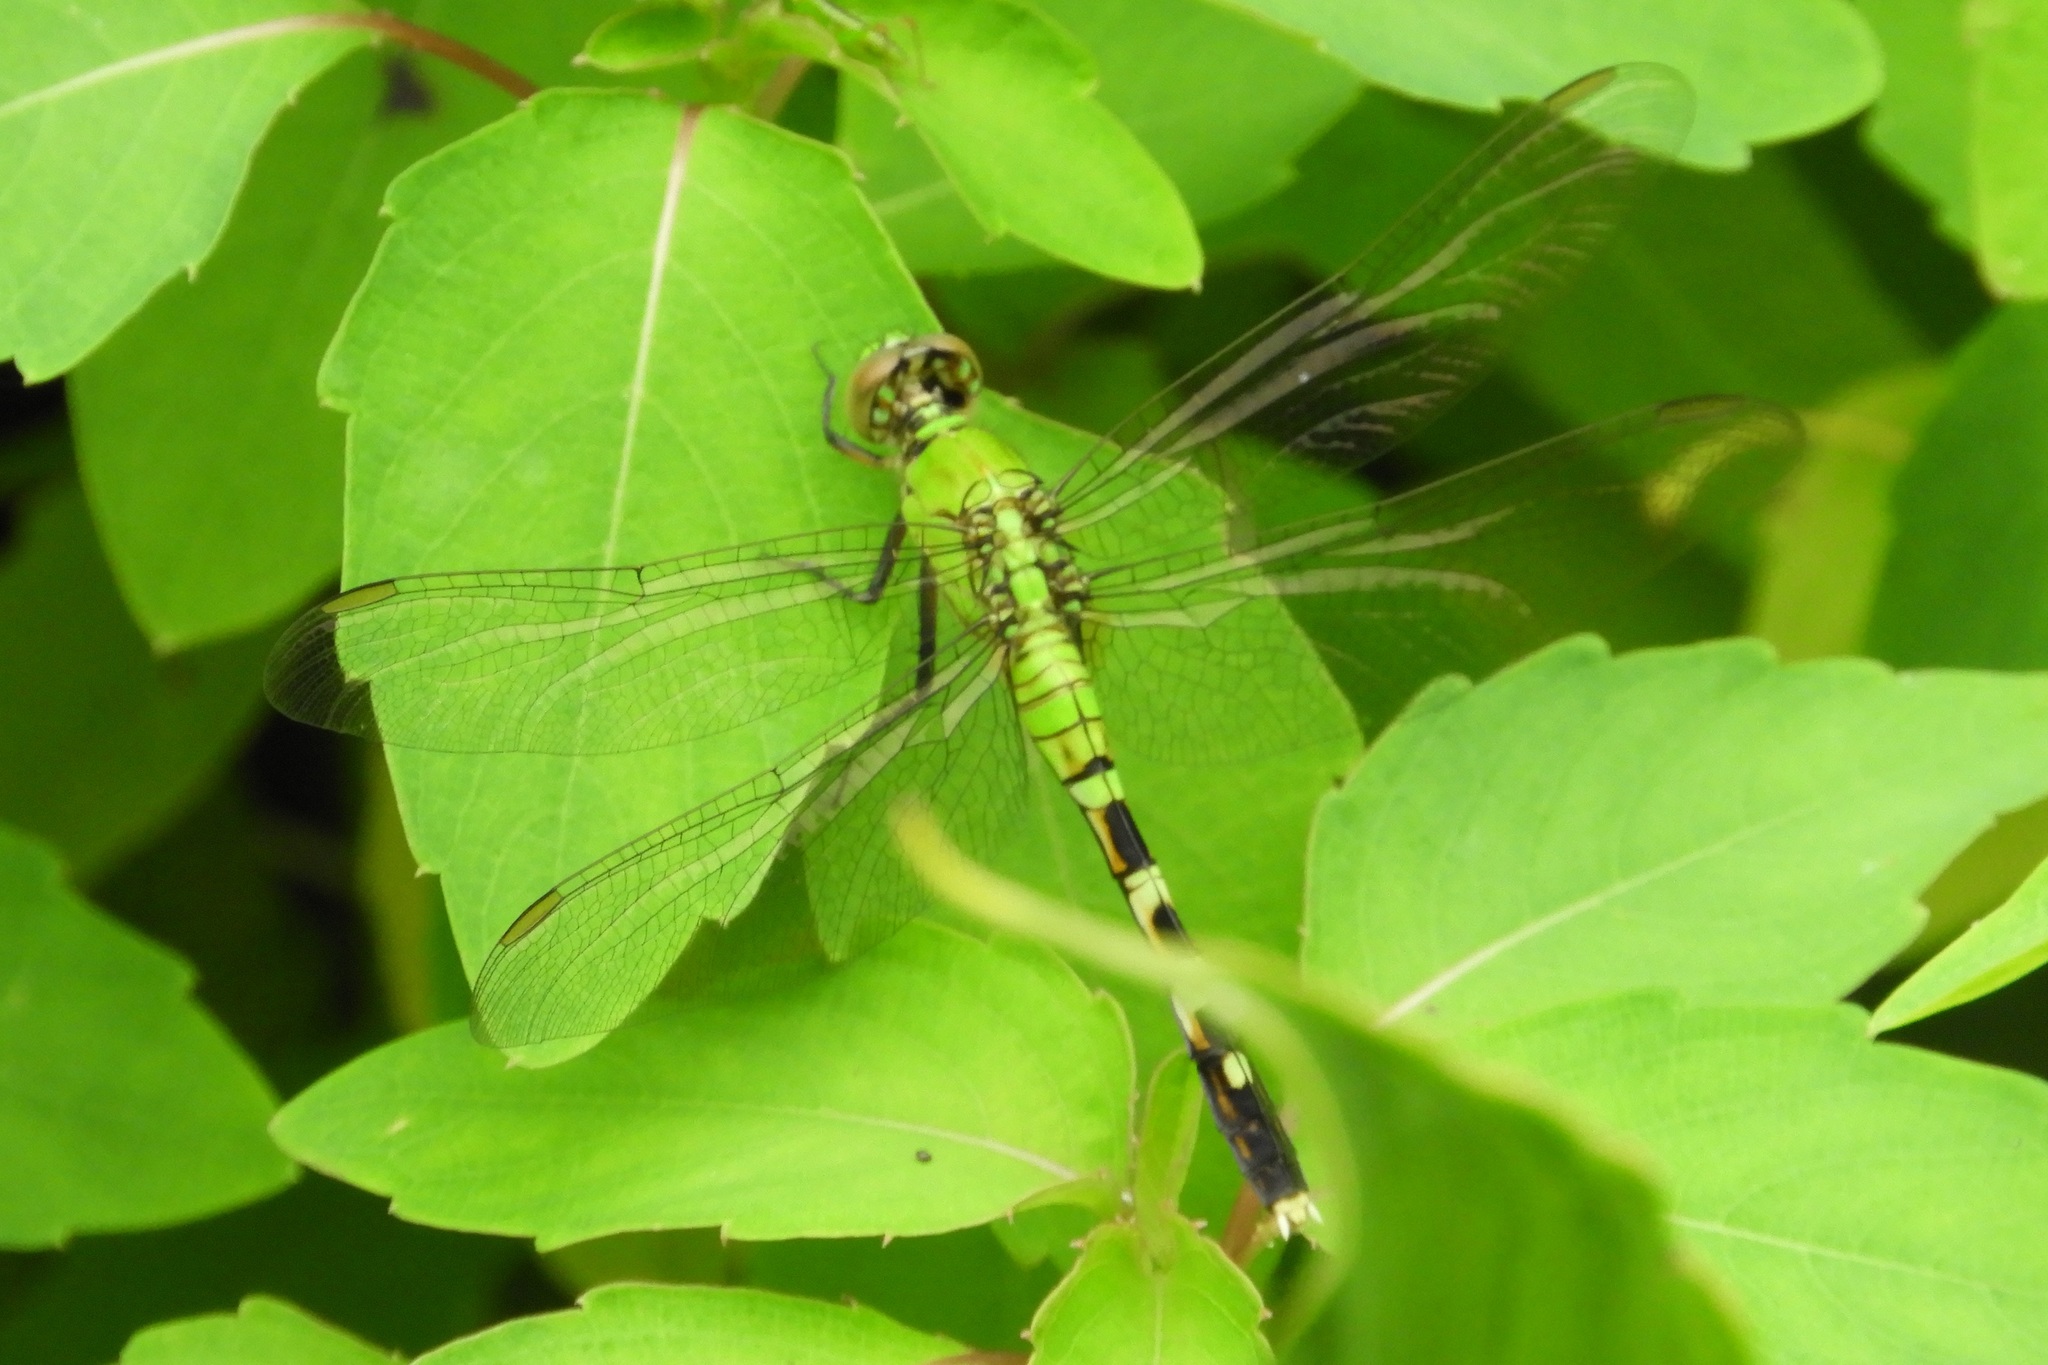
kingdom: Animalia
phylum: Arthropoda
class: Insecta
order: Odonata
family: Libellulidae
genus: Erythemis
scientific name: Erythemis simplicicollis
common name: Eastern pondhawk
